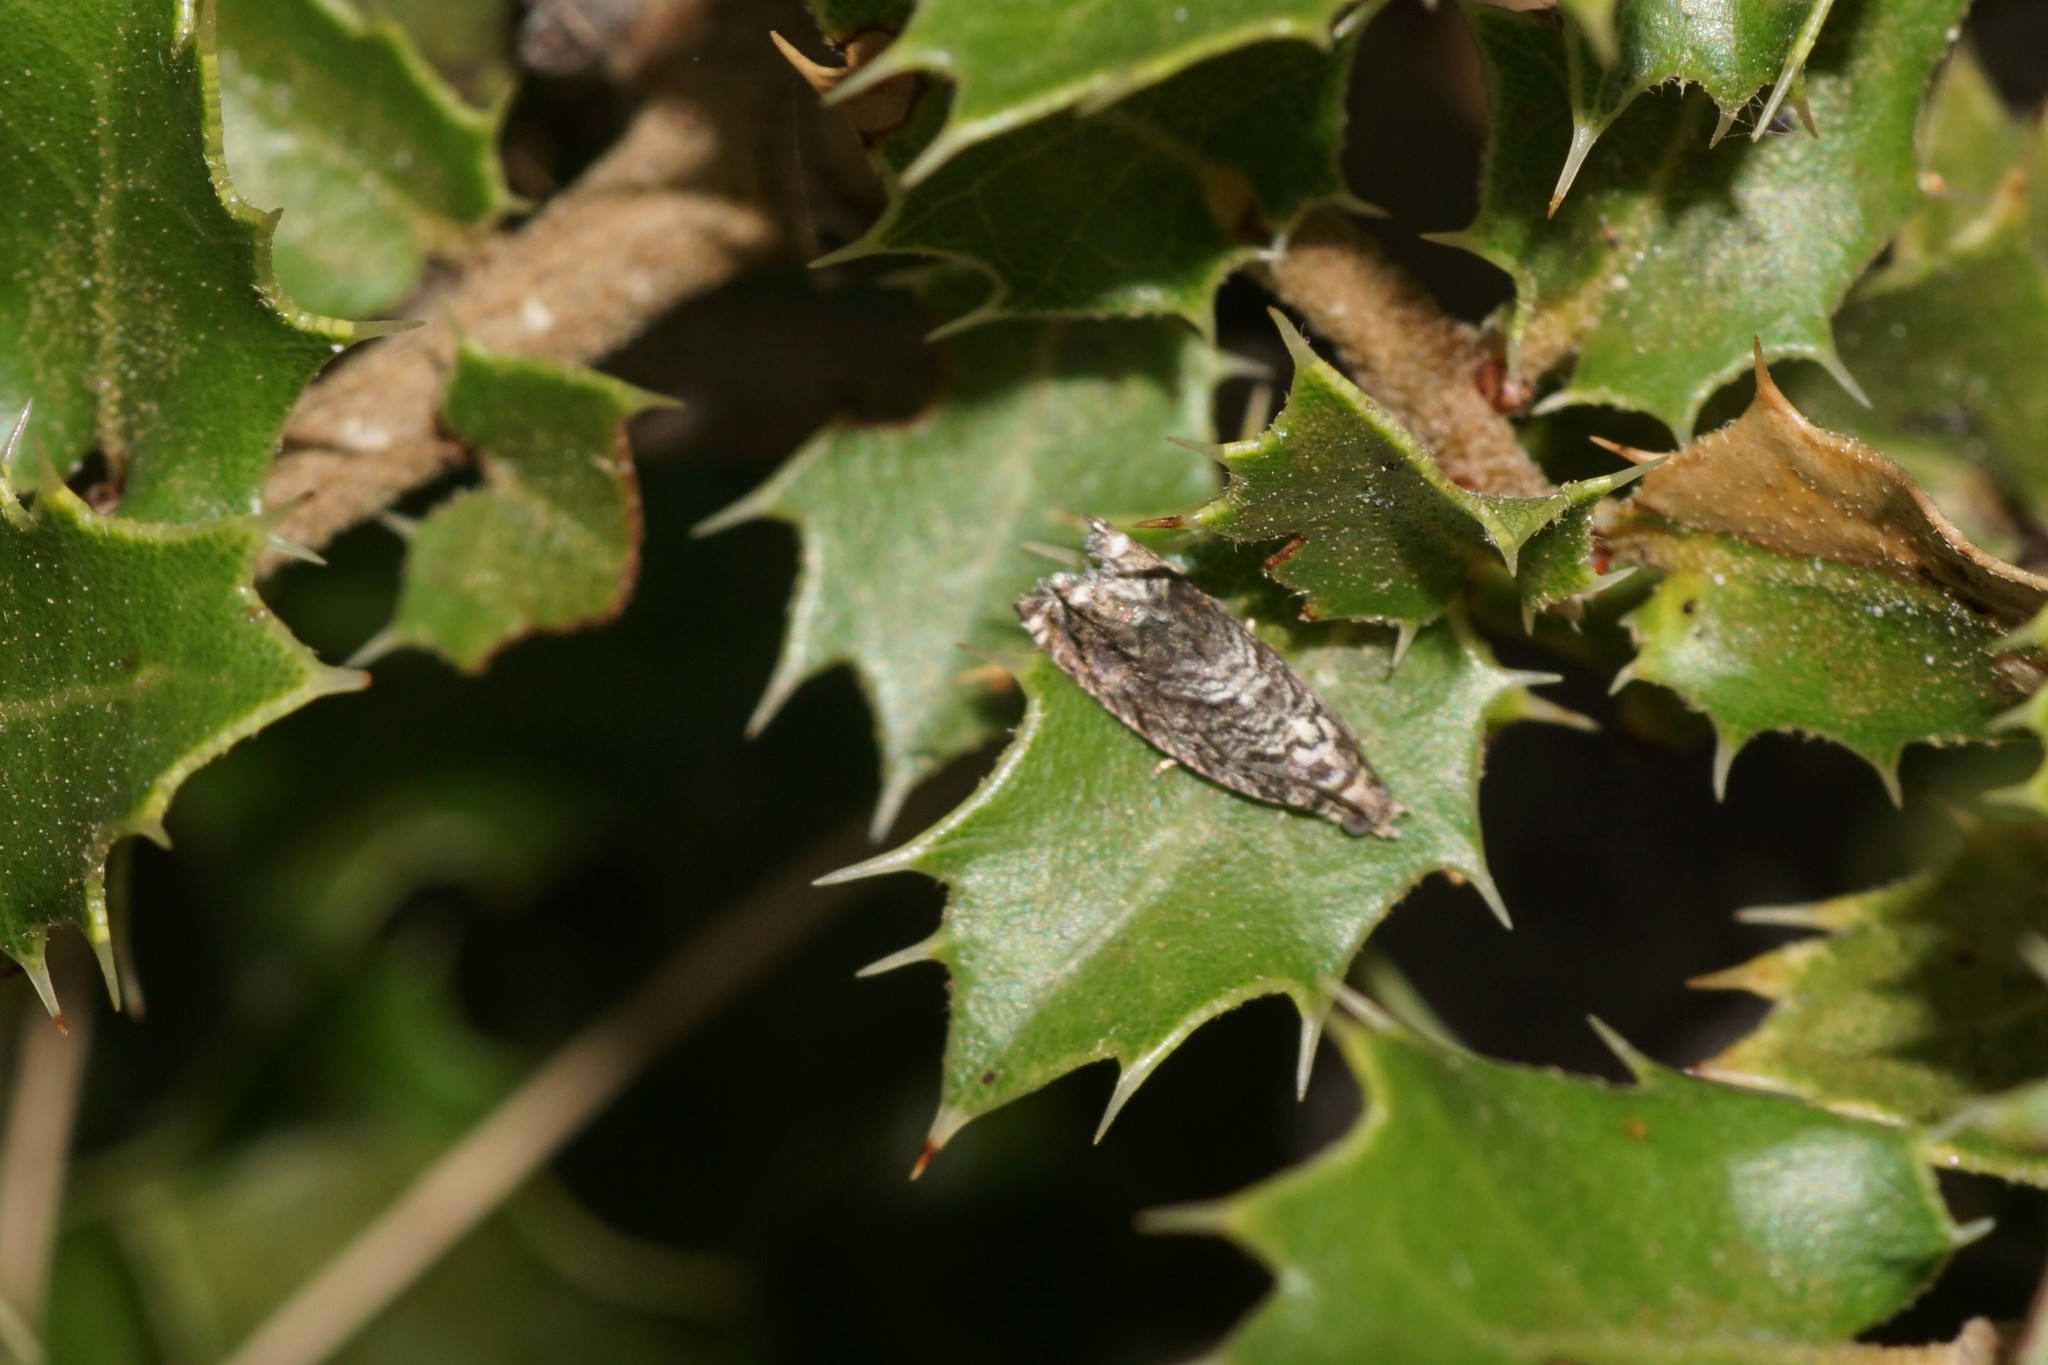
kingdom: Animalia
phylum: Arthropoda
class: Insecta
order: Lepidoptera
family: Tortricidae
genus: Cydia
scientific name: Cydia fagiglandana
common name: Large beech piercer
